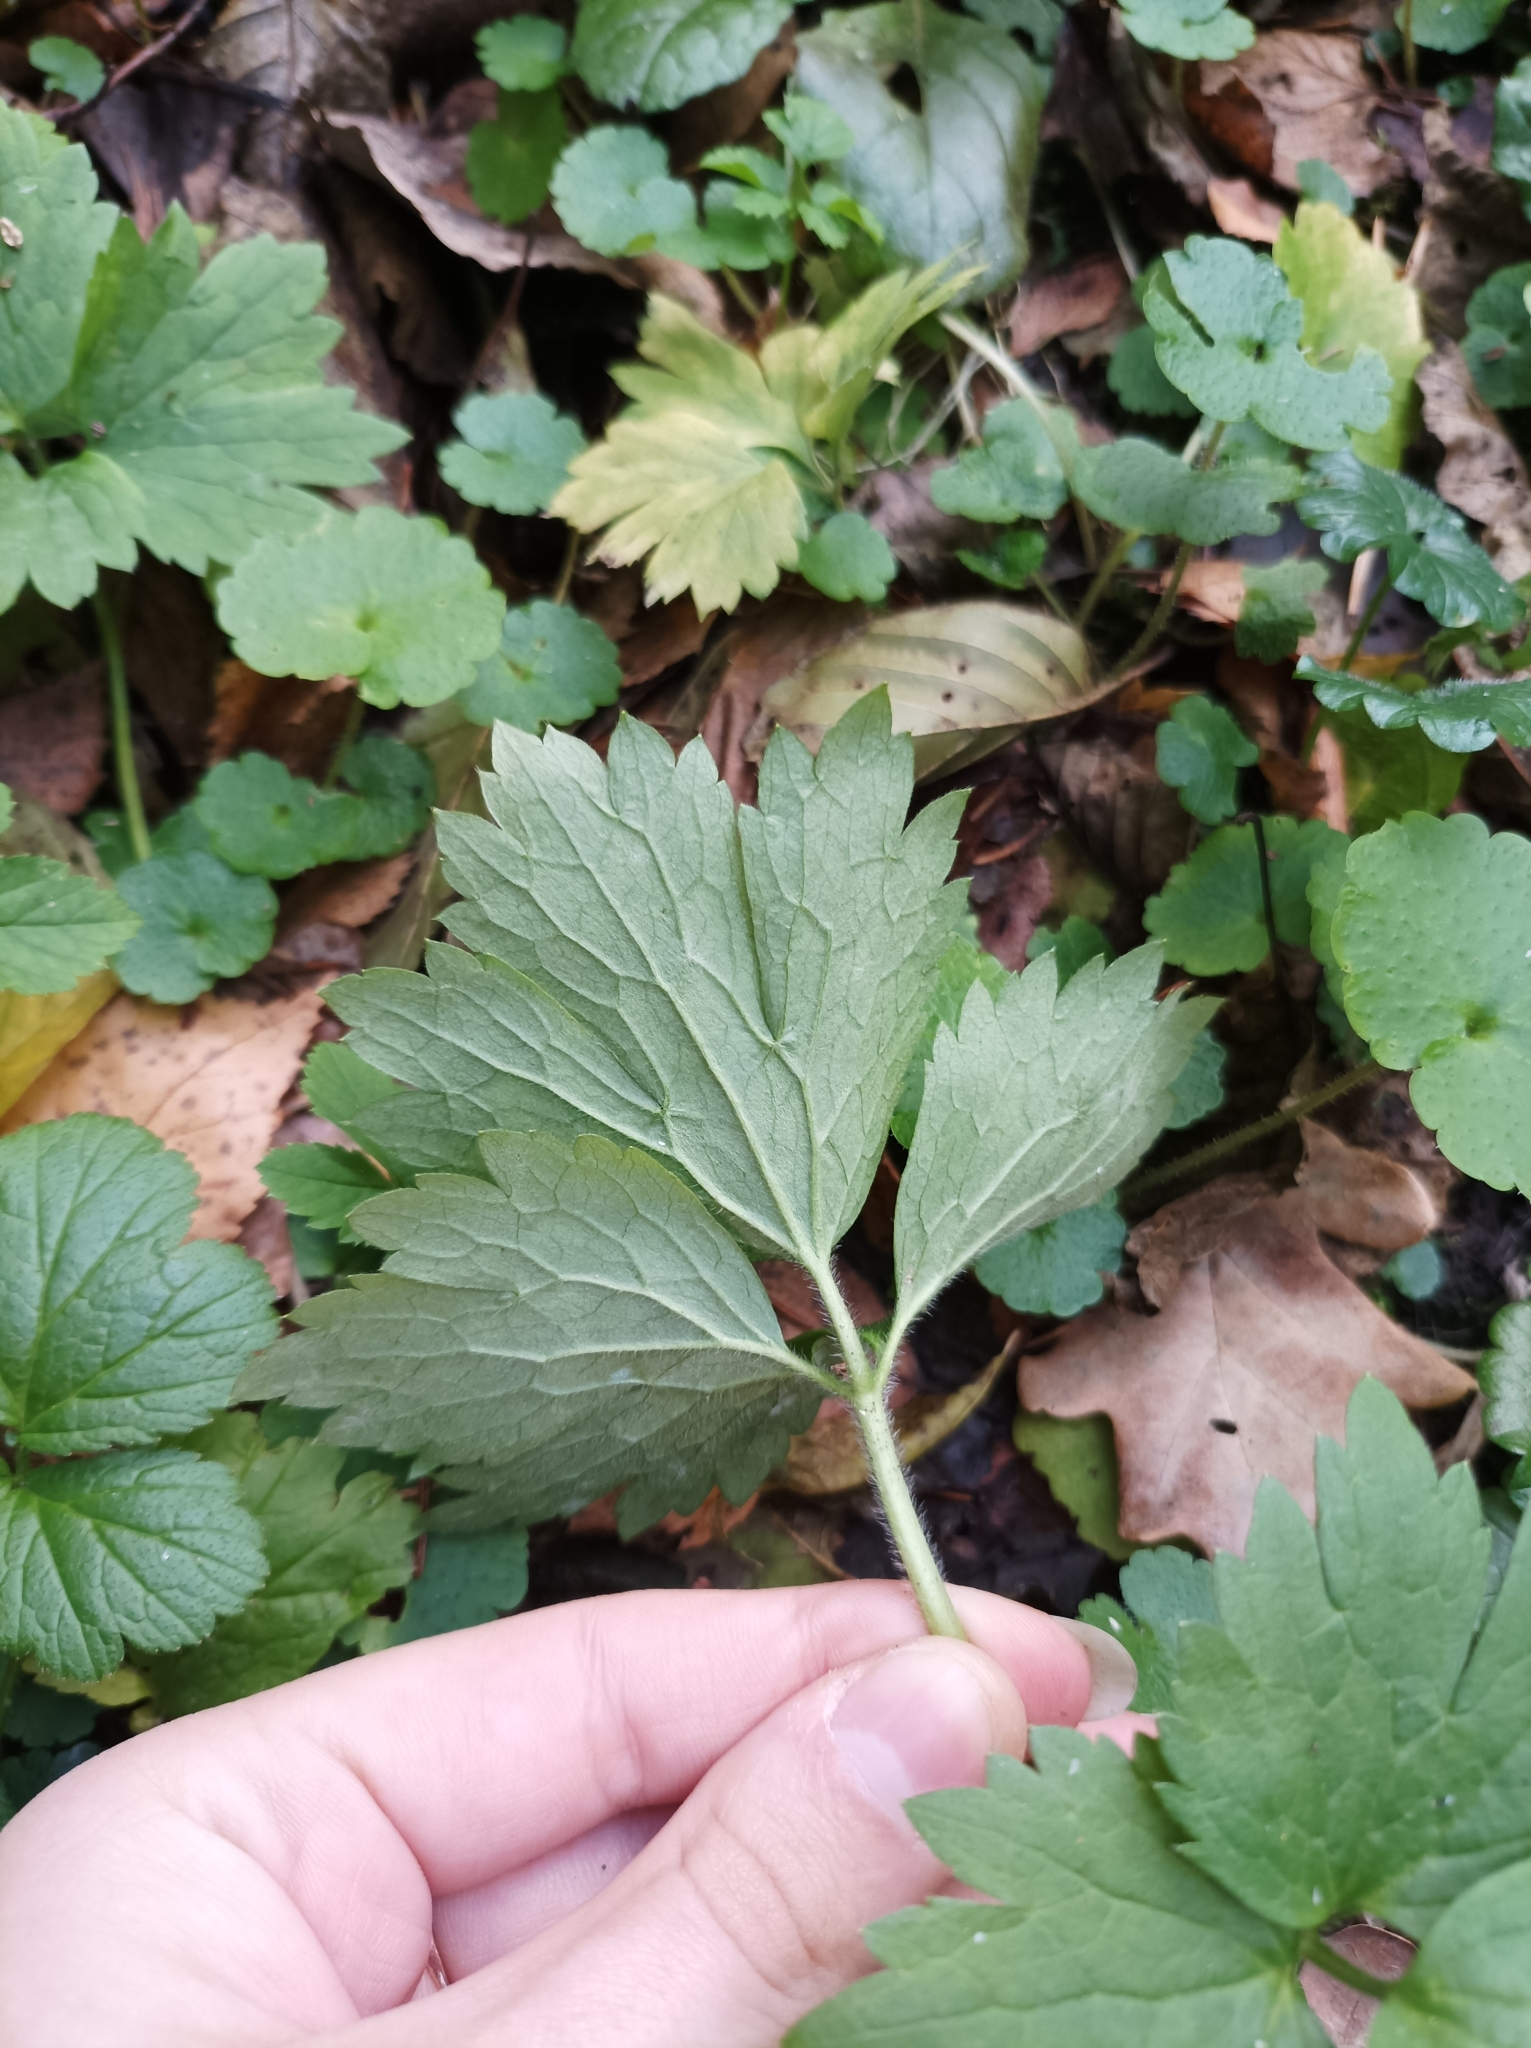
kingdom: Plantae
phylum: Tracheophyta
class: Magnoliopsida
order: Ranunculales
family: Ranunculaceae
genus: Ranunculus
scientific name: Ranunculus repens
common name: Creeping buttercup
